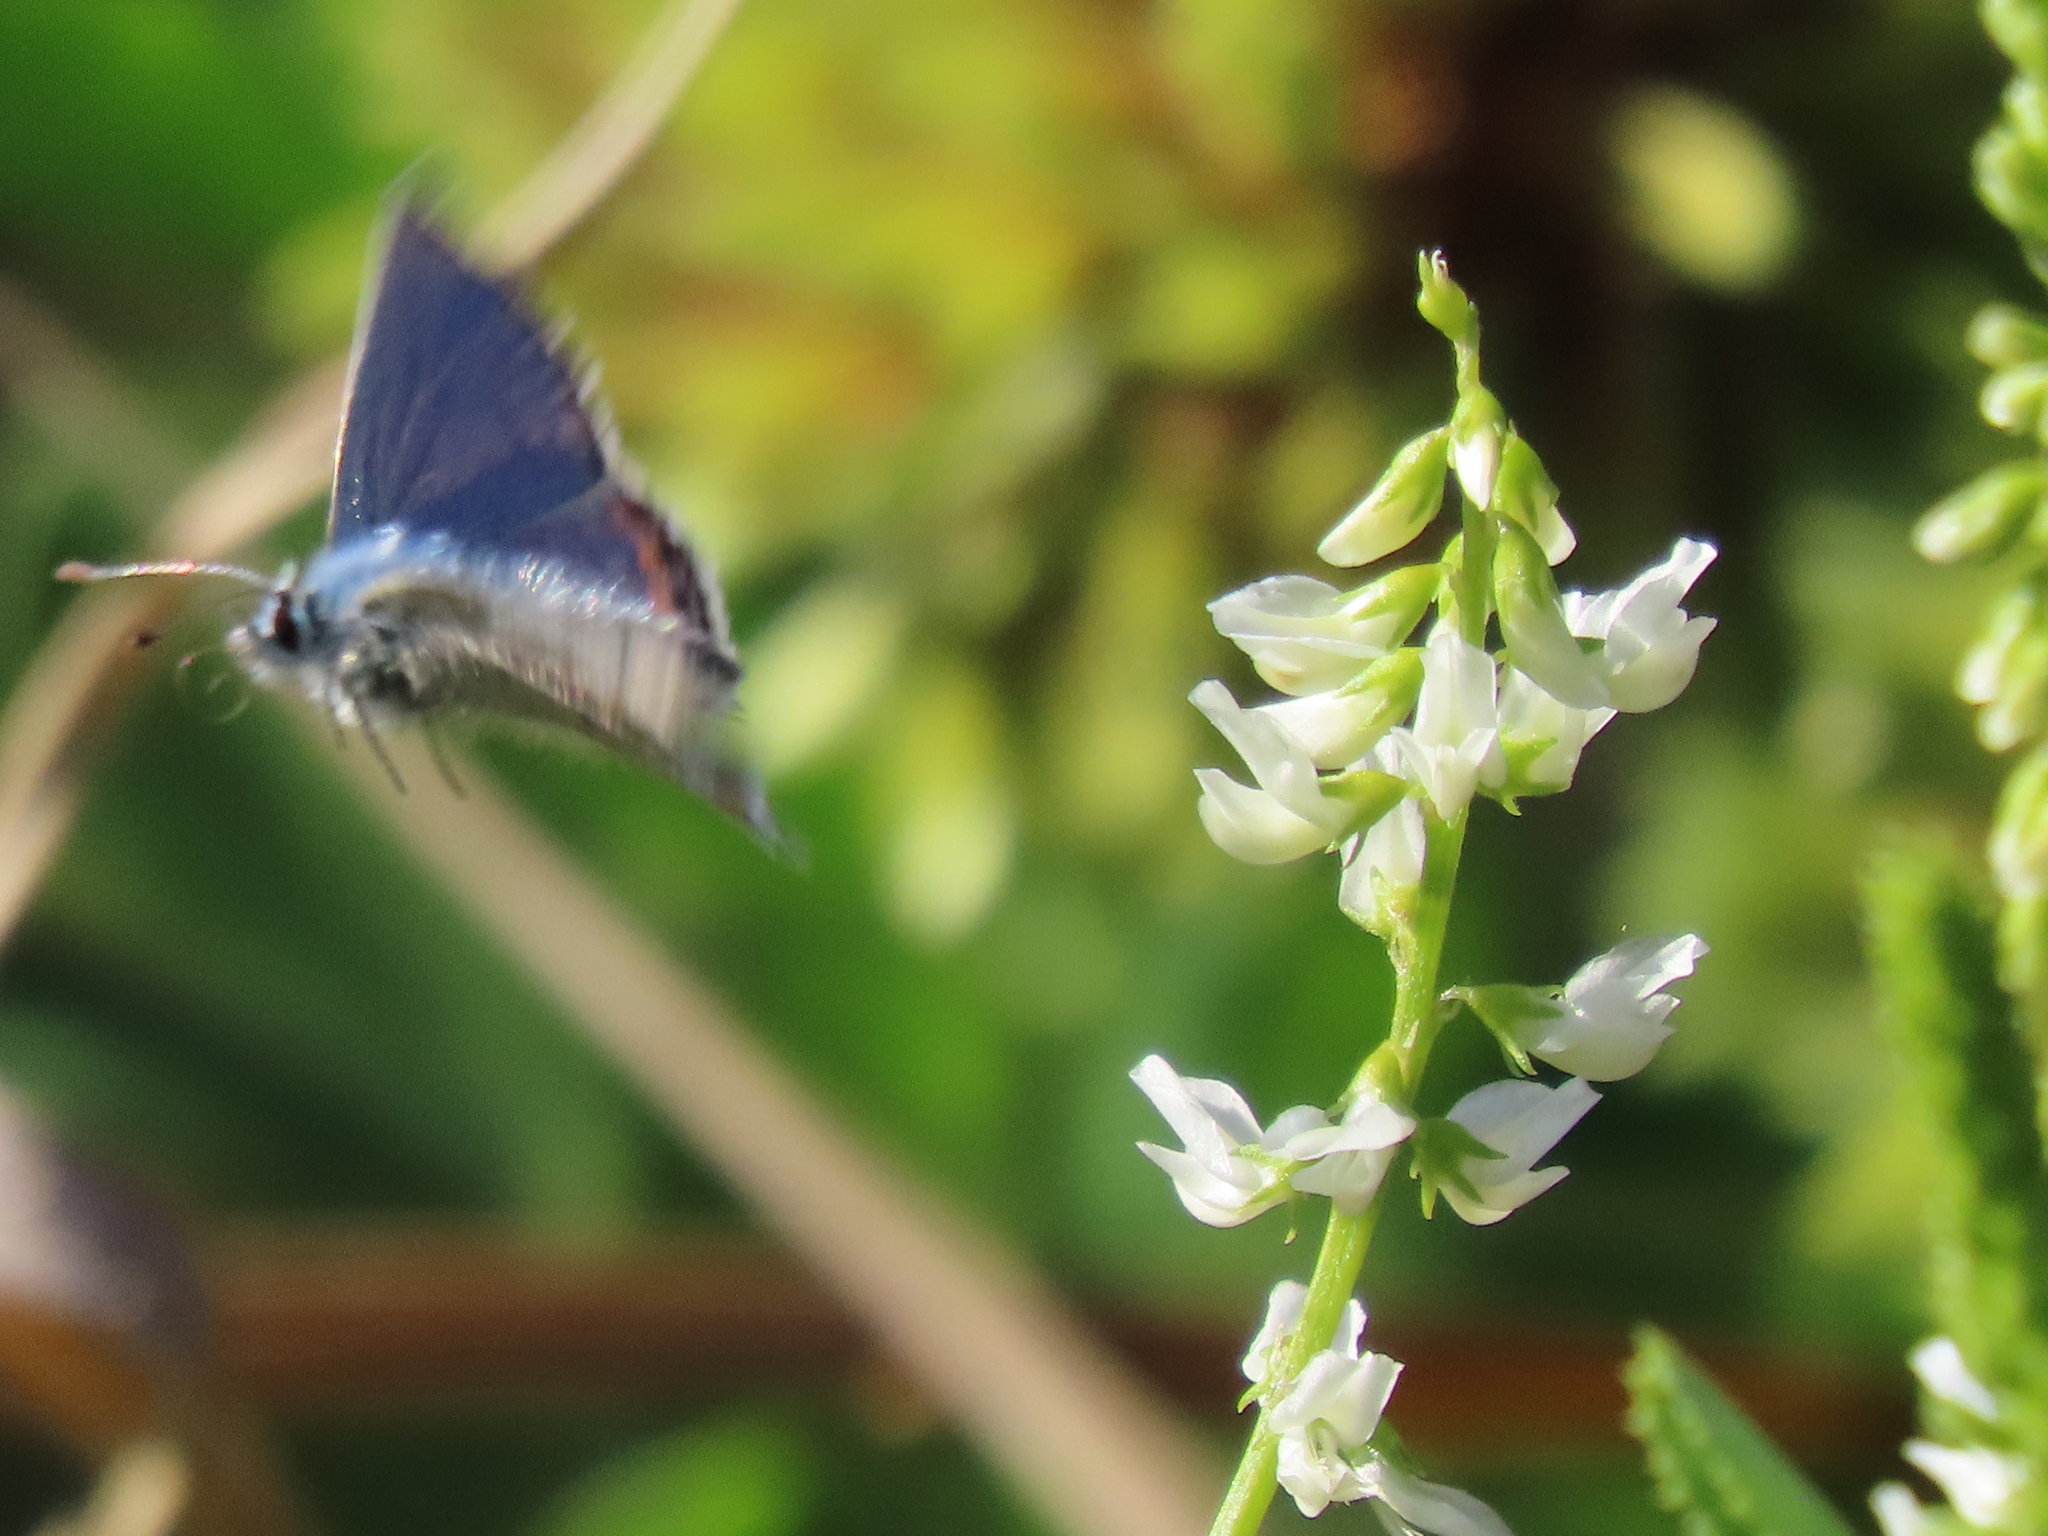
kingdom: Animalia
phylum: Arthropoda
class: Insecta
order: Lepidoptera
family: Lycaenidae
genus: Icaricia
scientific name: Icaricia acmon
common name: Acmon blue
